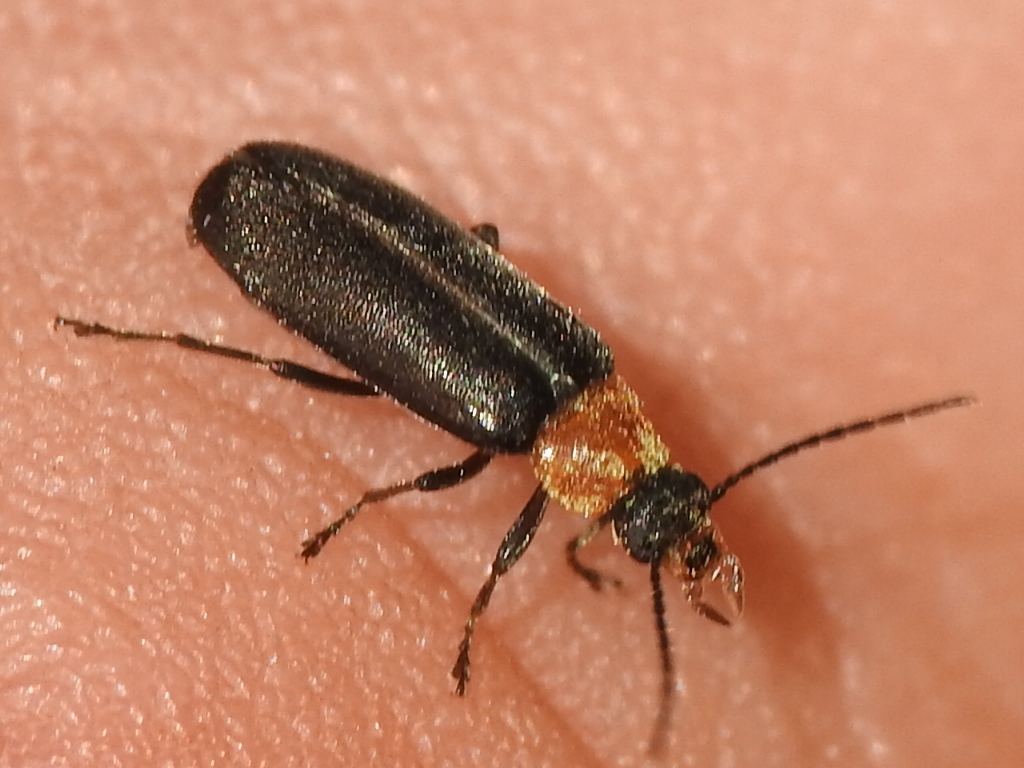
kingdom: Animalia
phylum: Arthropoda
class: Insecta
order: Coleoptera
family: Melandryidae
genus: Osphya
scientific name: Osphya varians
